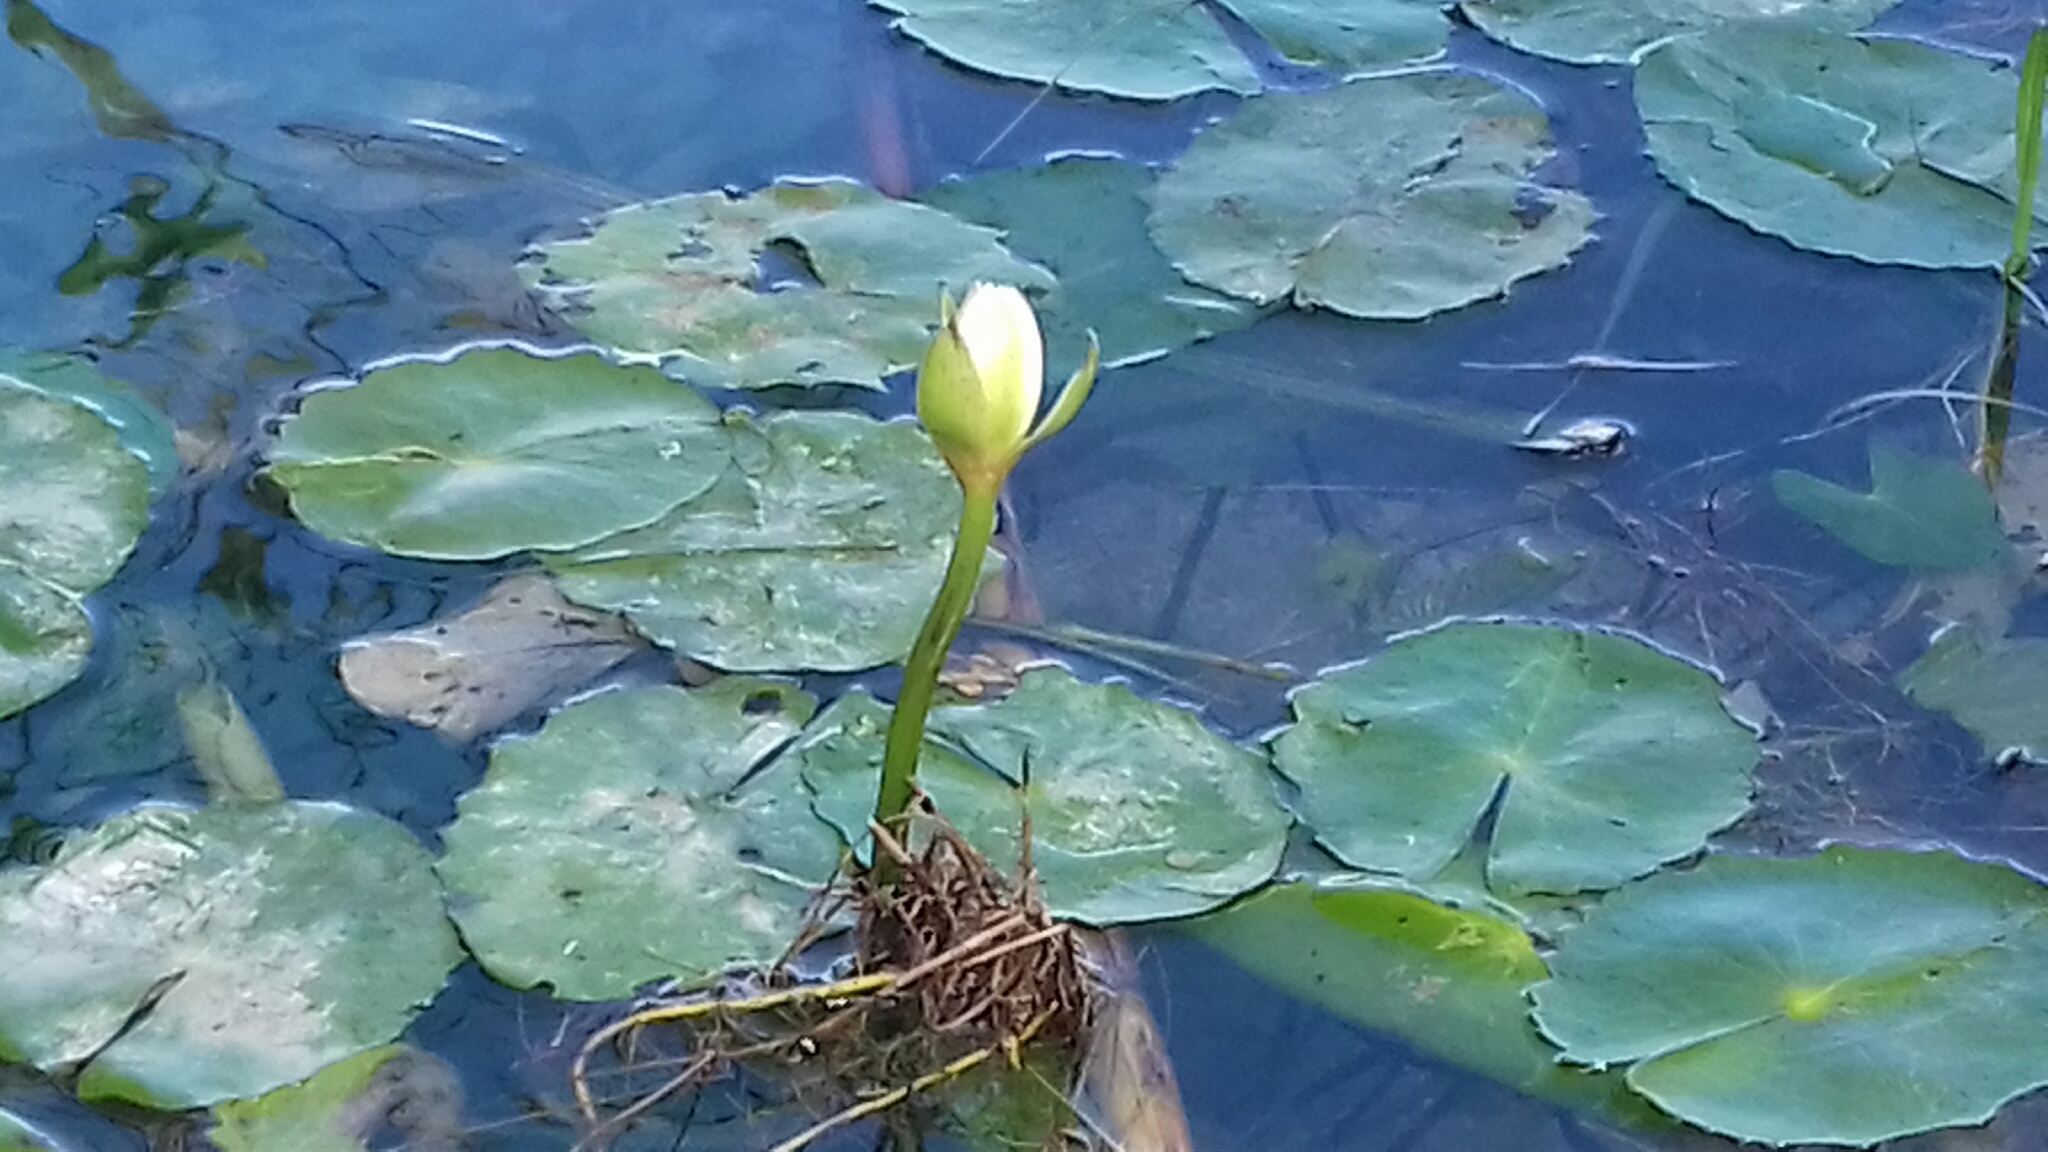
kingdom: Plantae
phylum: Tracheophyta
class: Magnoliopsida
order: Nymphaeales
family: Nymphaeaceae
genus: Nymphaea
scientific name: Nymphaea ampla
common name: Dotleaf waterlily
